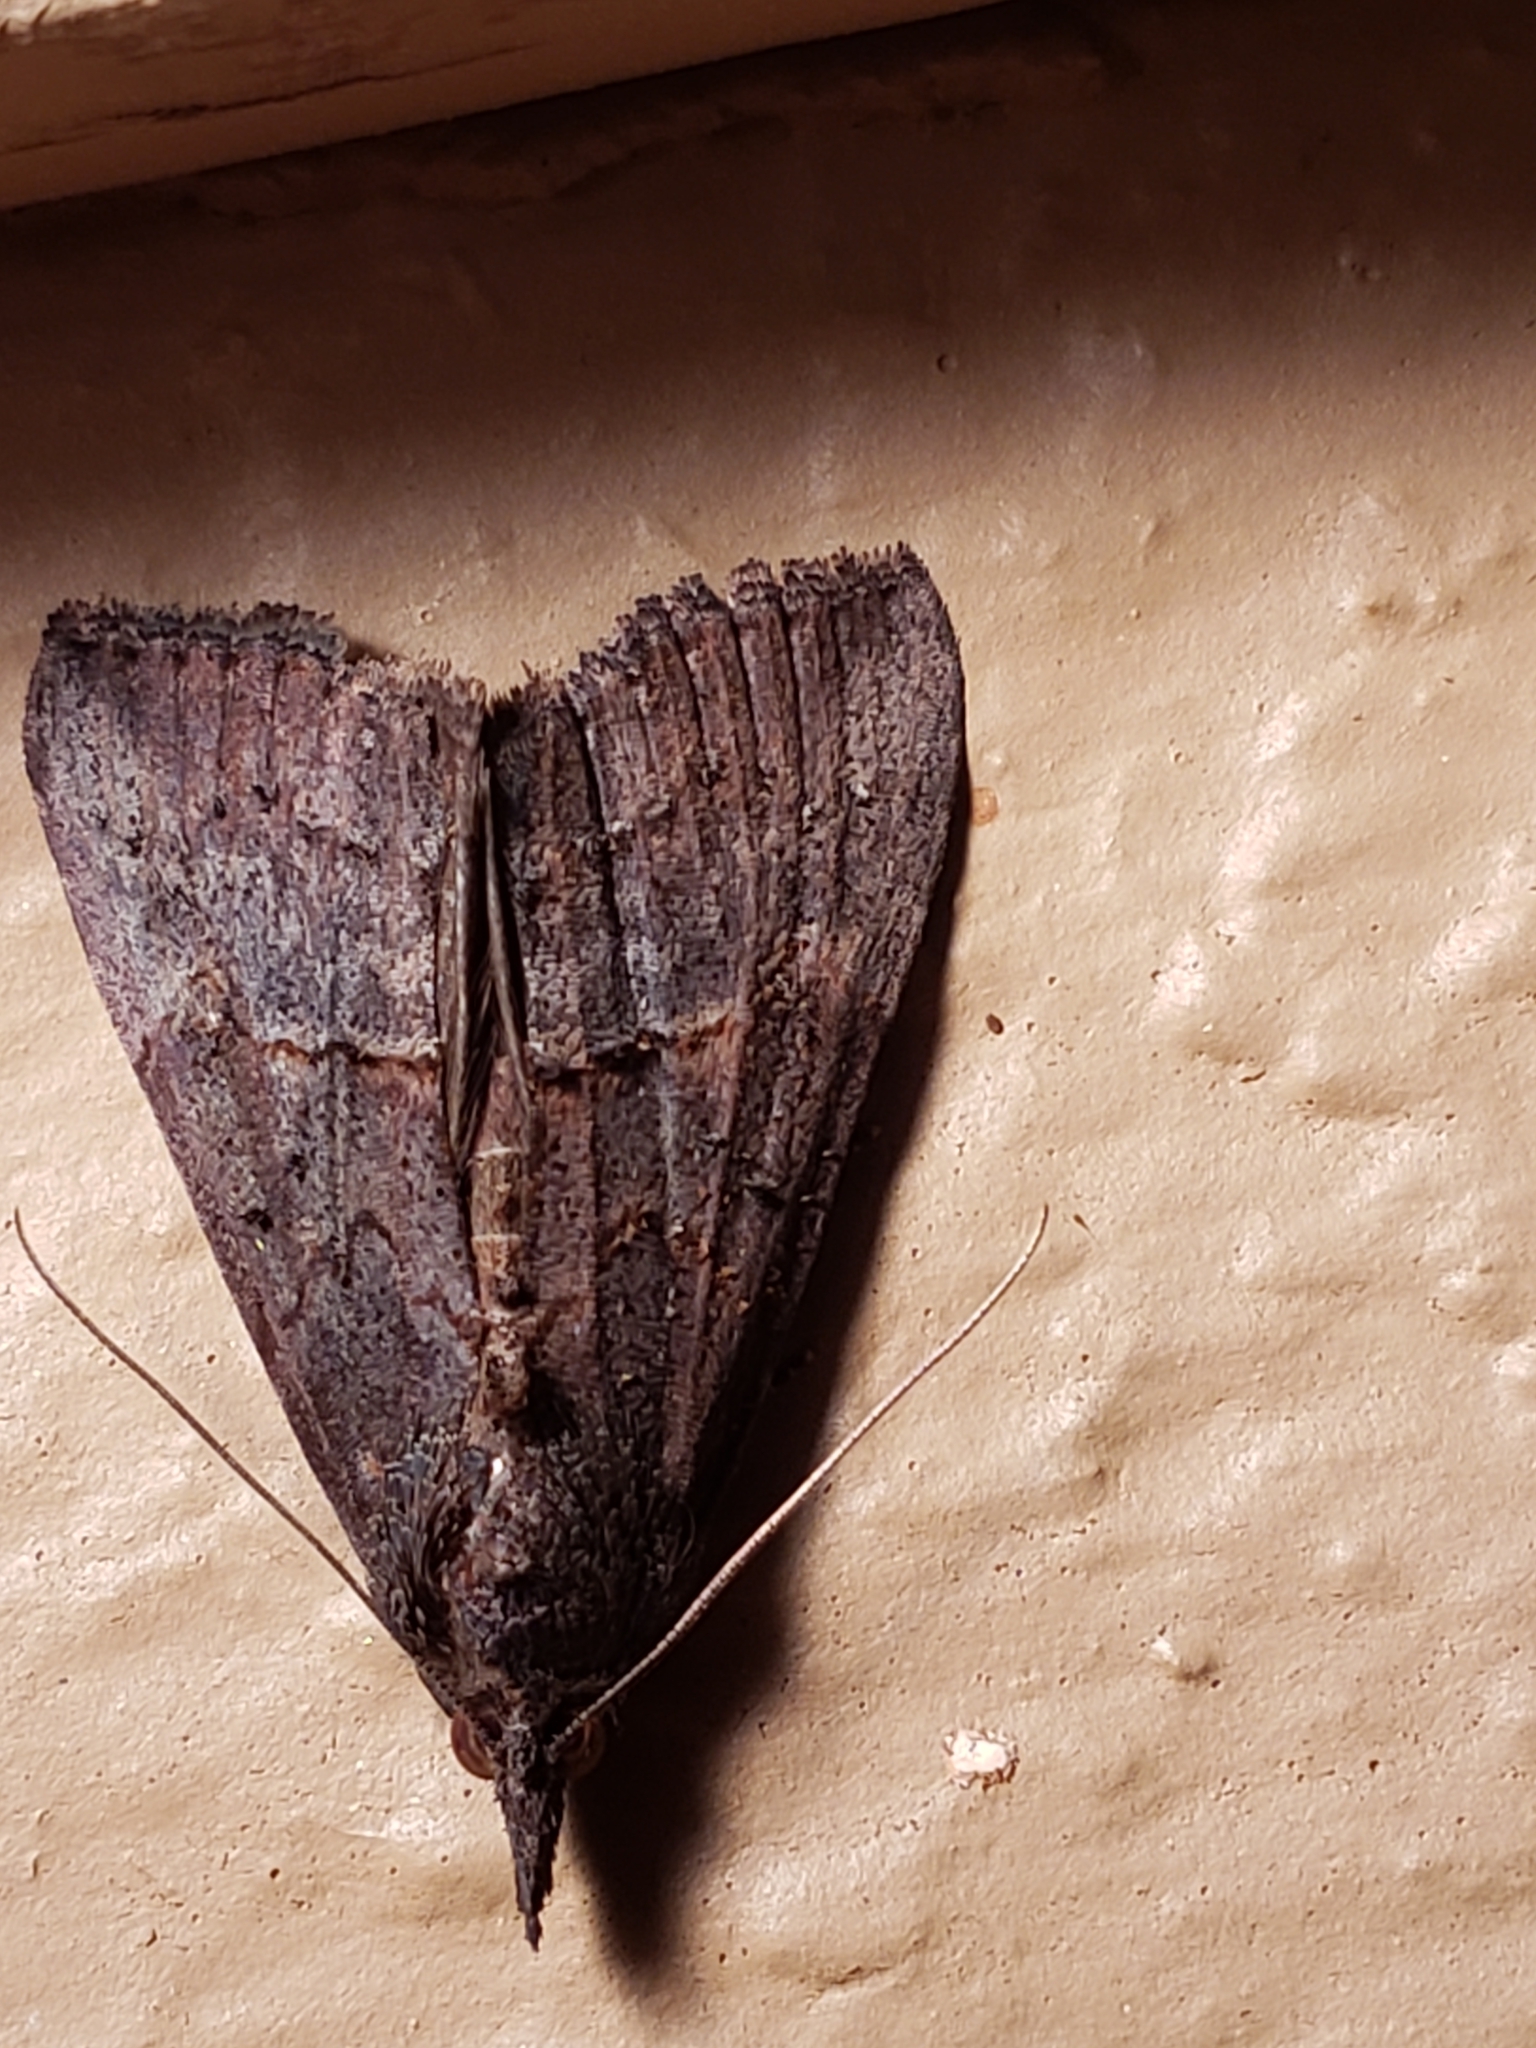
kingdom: Animalia
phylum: Arthropoda
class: Insecta
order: Lepidoptera
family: Erebidae
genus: Hypena
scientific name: Hypena scabra
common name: Green cloverworm
